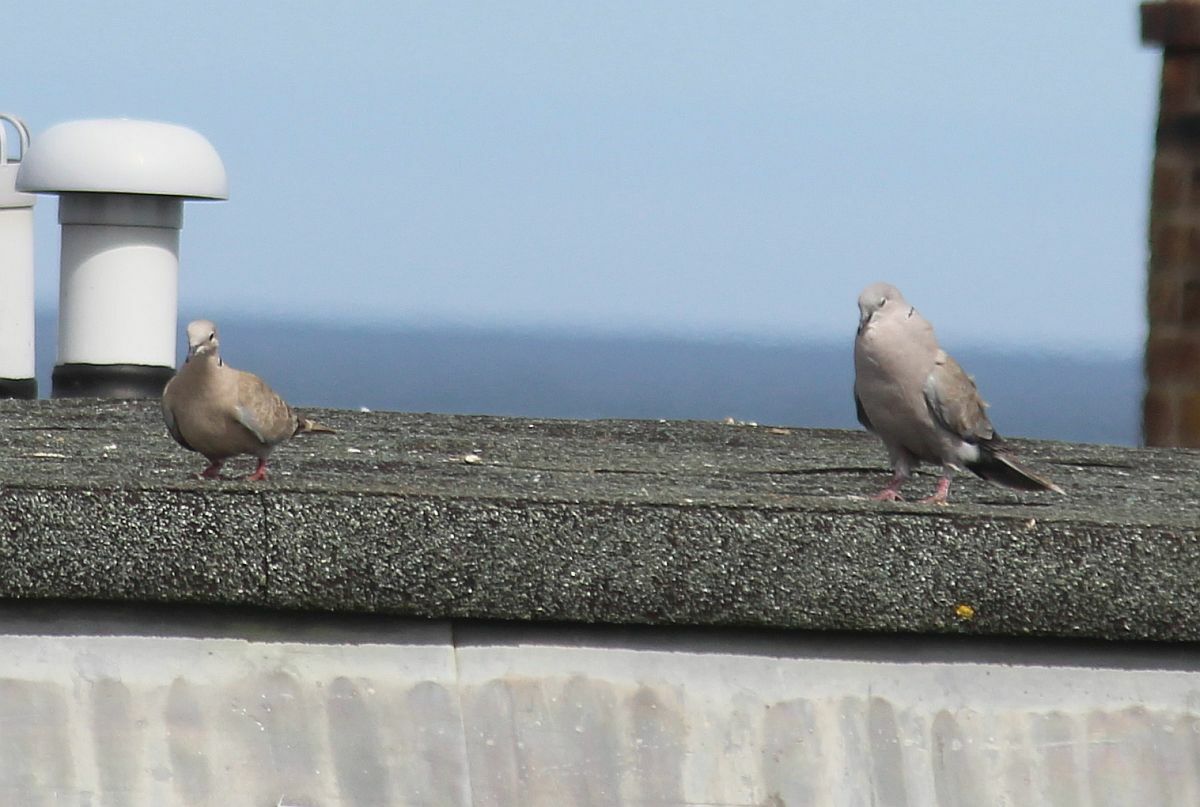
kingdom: Animalia
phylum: Chordata
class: Aves
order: Columbiformes
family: Columbidae
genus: Streptopelia
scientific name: Streptopelia decaocto
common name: Eurasian collared dove
